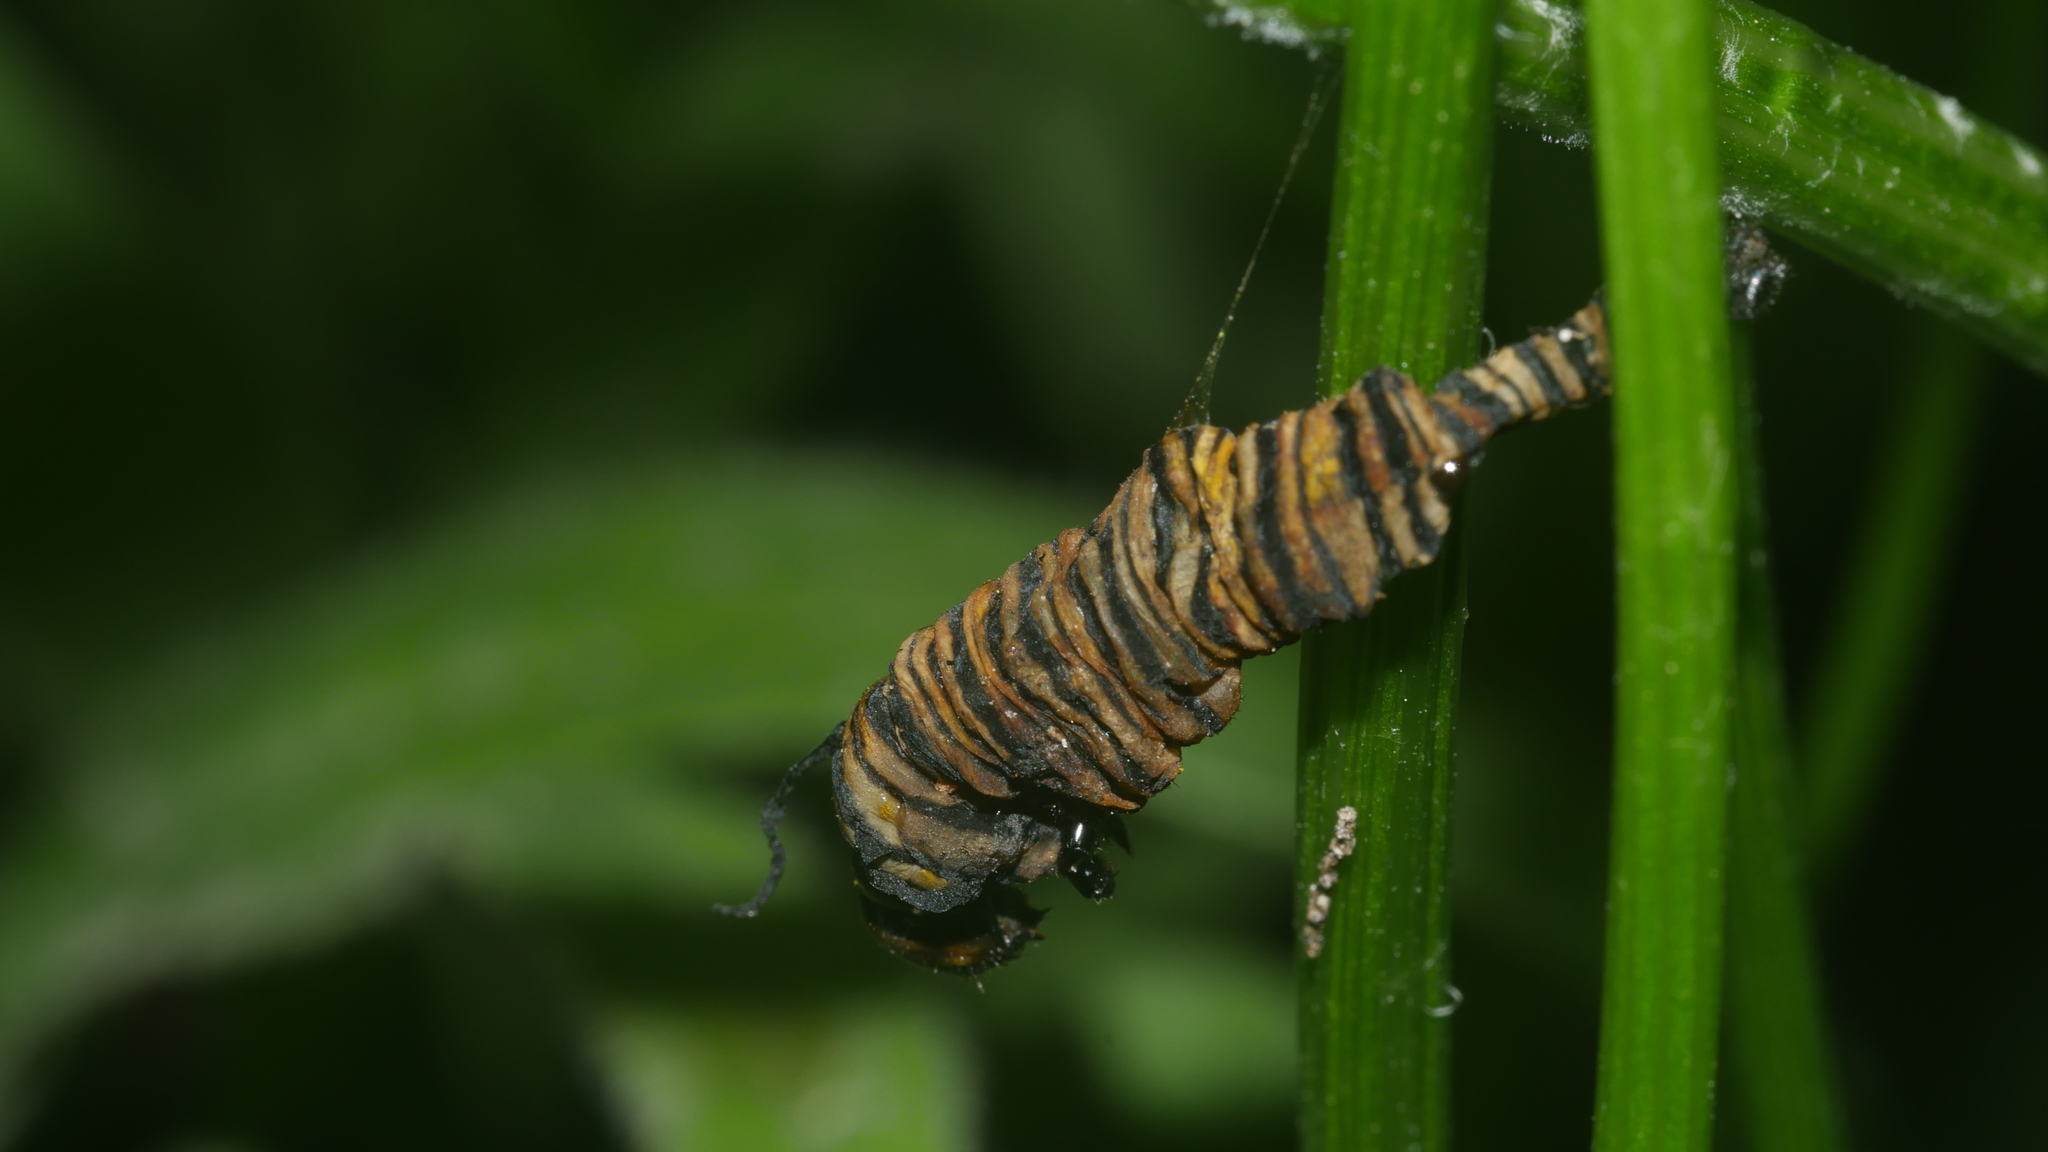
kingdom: Animalia
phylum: Arthropoda
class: Insecta
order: Lepidoptera
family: Nymphalidae
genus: Danaus
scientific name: Danaus plexippus
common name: Monarch
